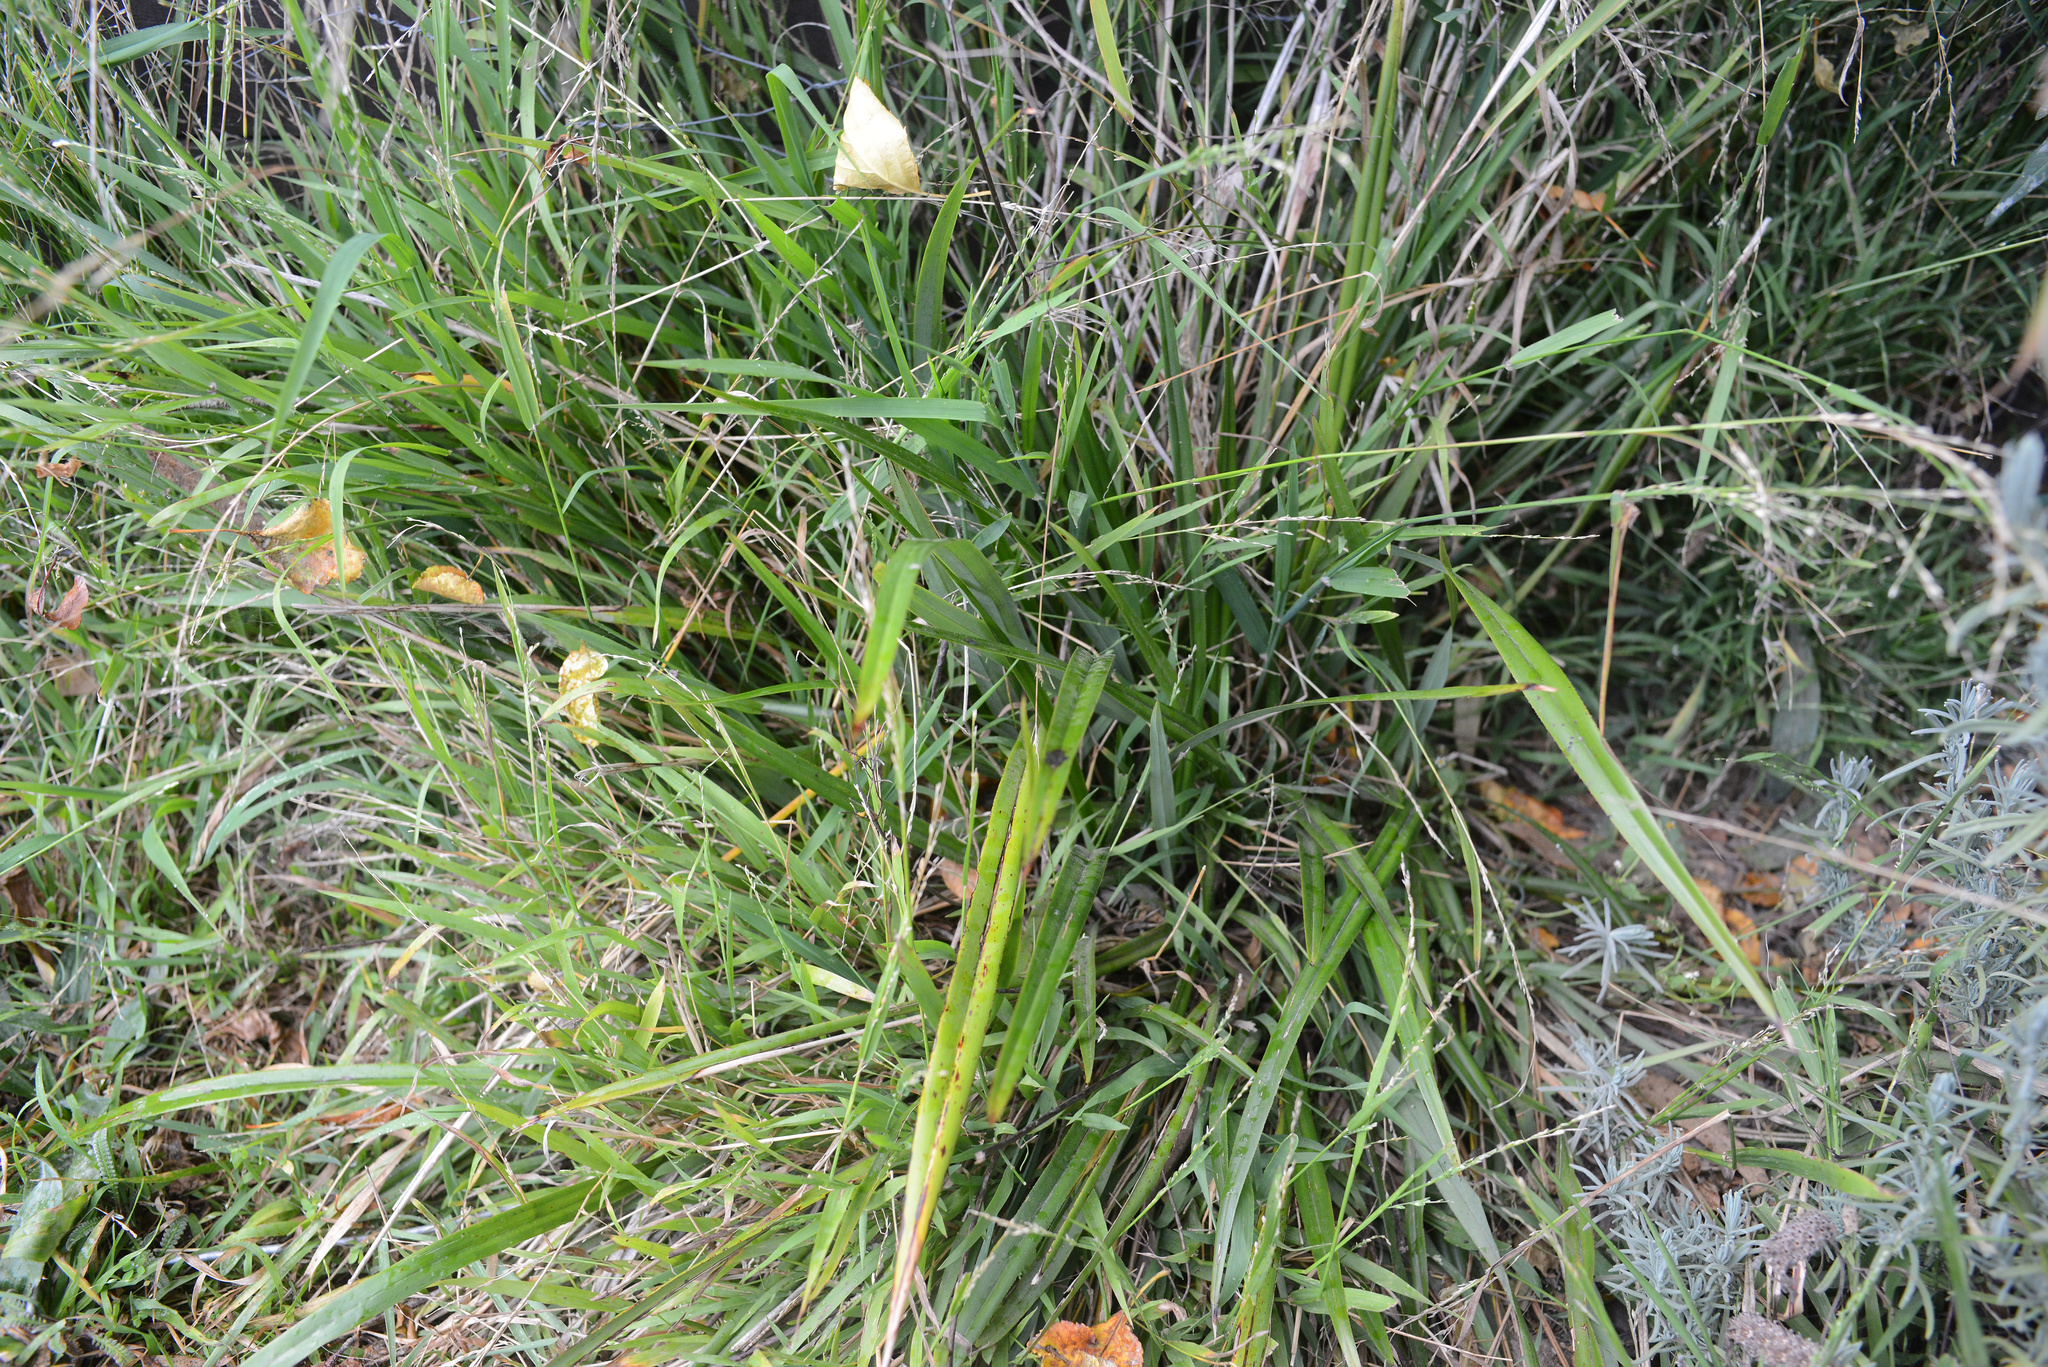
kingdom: Plantae
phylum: Tracheophyta
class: Liliopsida
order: Asparagales
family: Asphodelaceae
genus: Dianella
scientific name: Dianella nigra
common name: New zealand-blueberry
